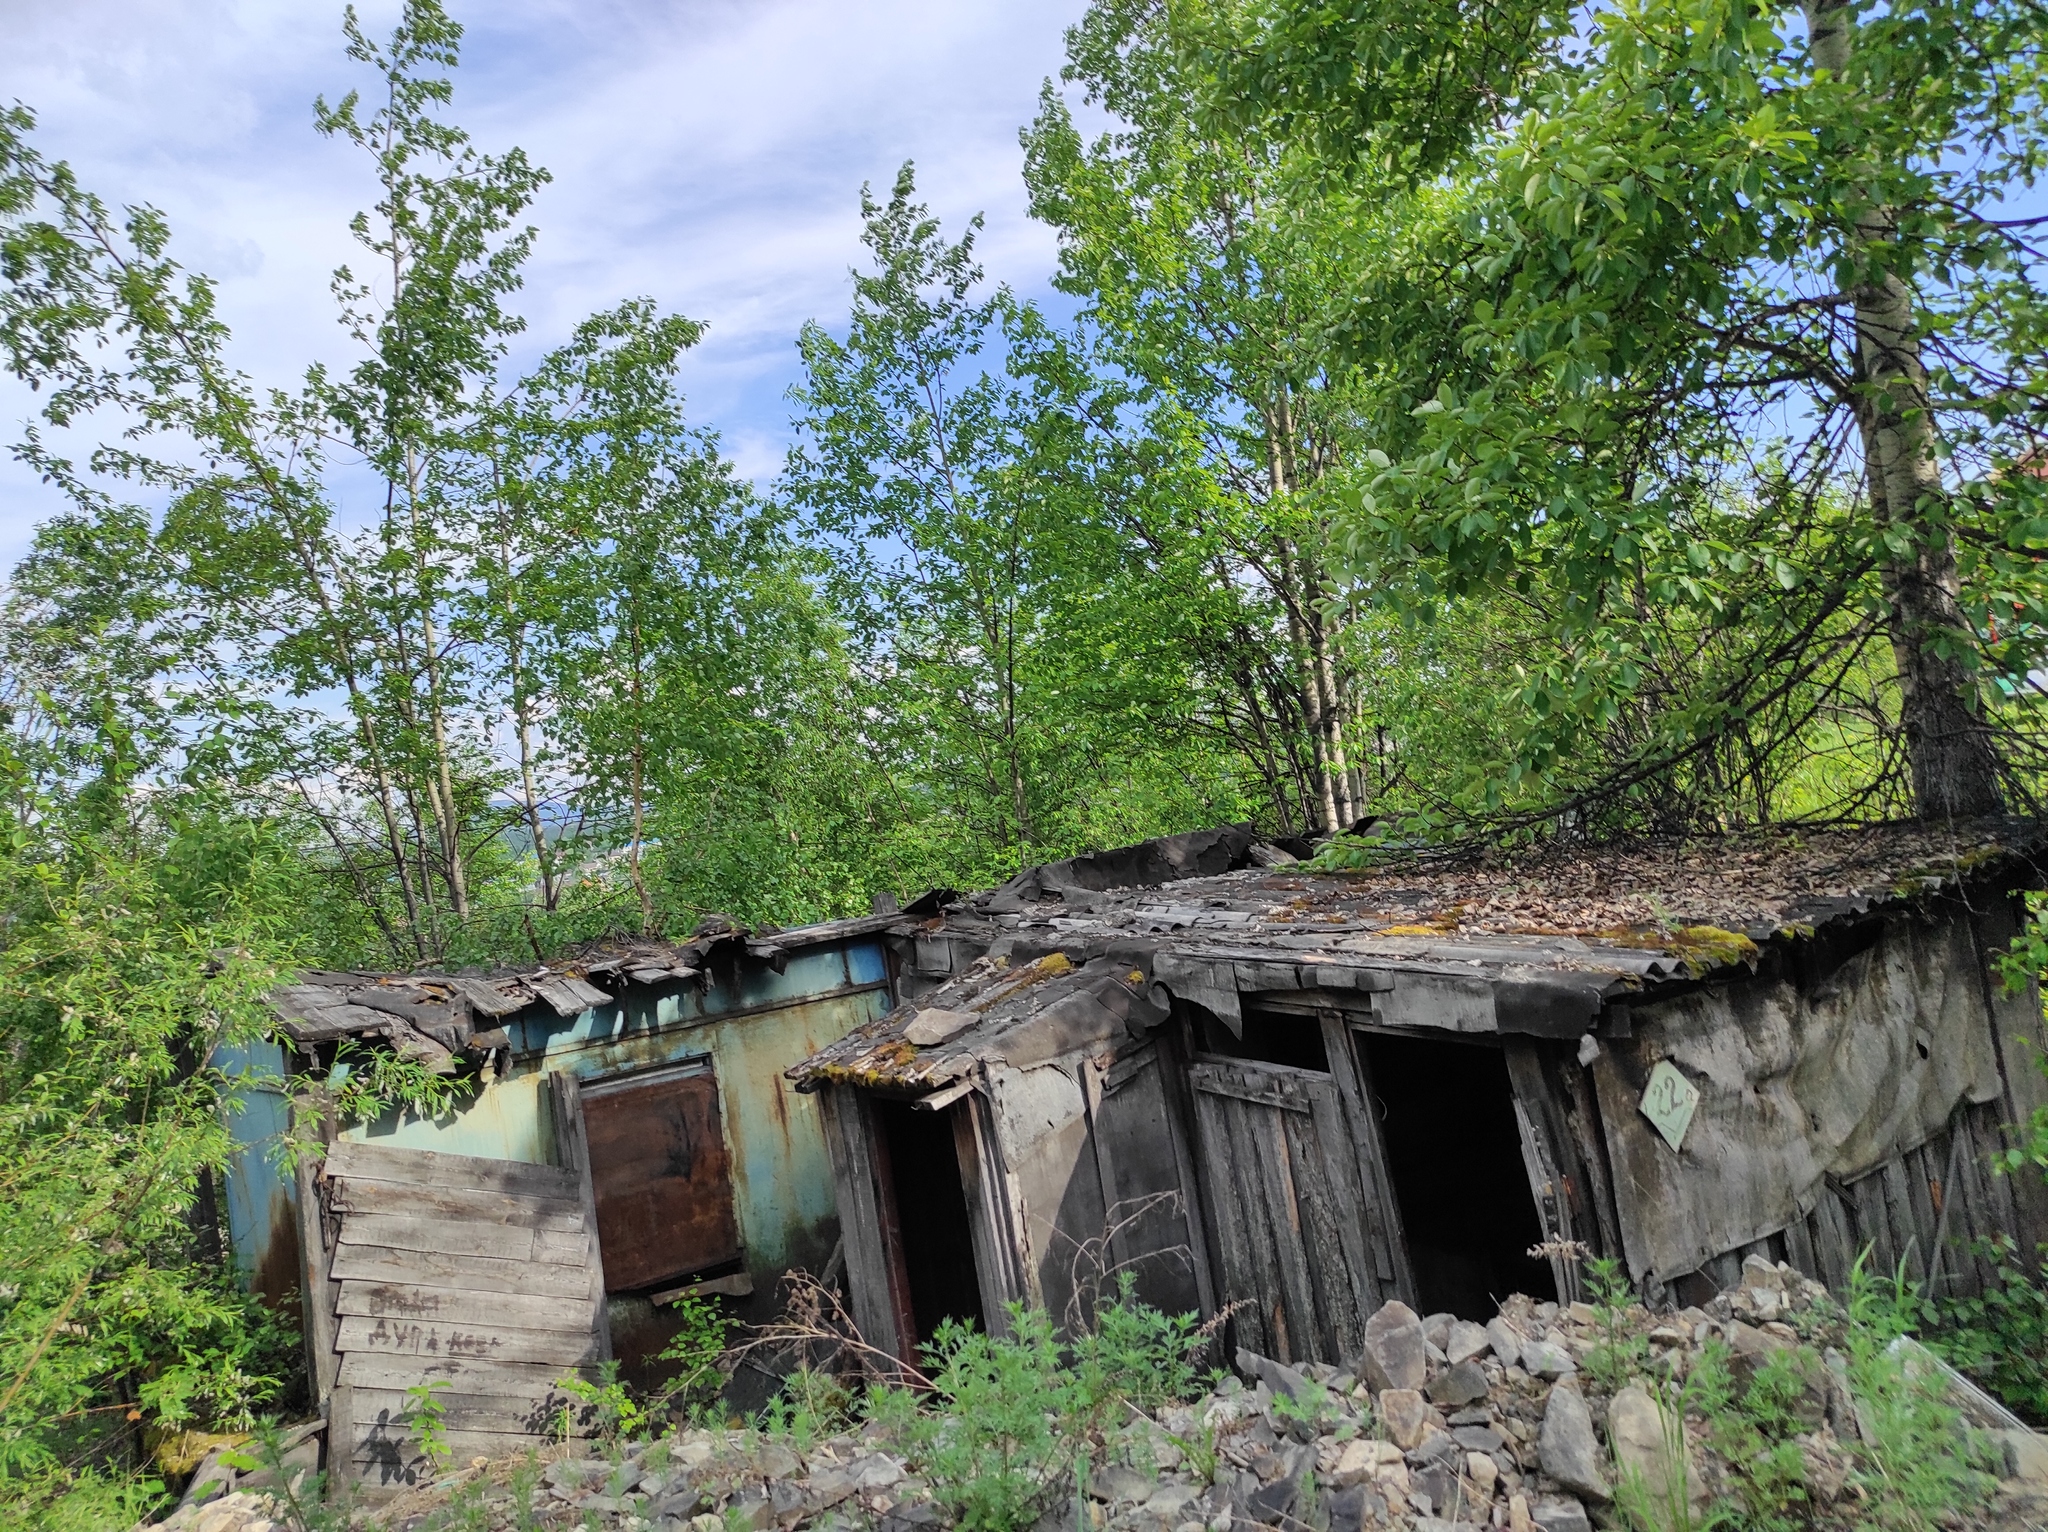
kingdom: Plantae
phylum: Tracheophyta
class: Magnoliopsida
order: Malpighiales
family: Salicaceae
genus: Populus
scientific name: Populus suaveolens
